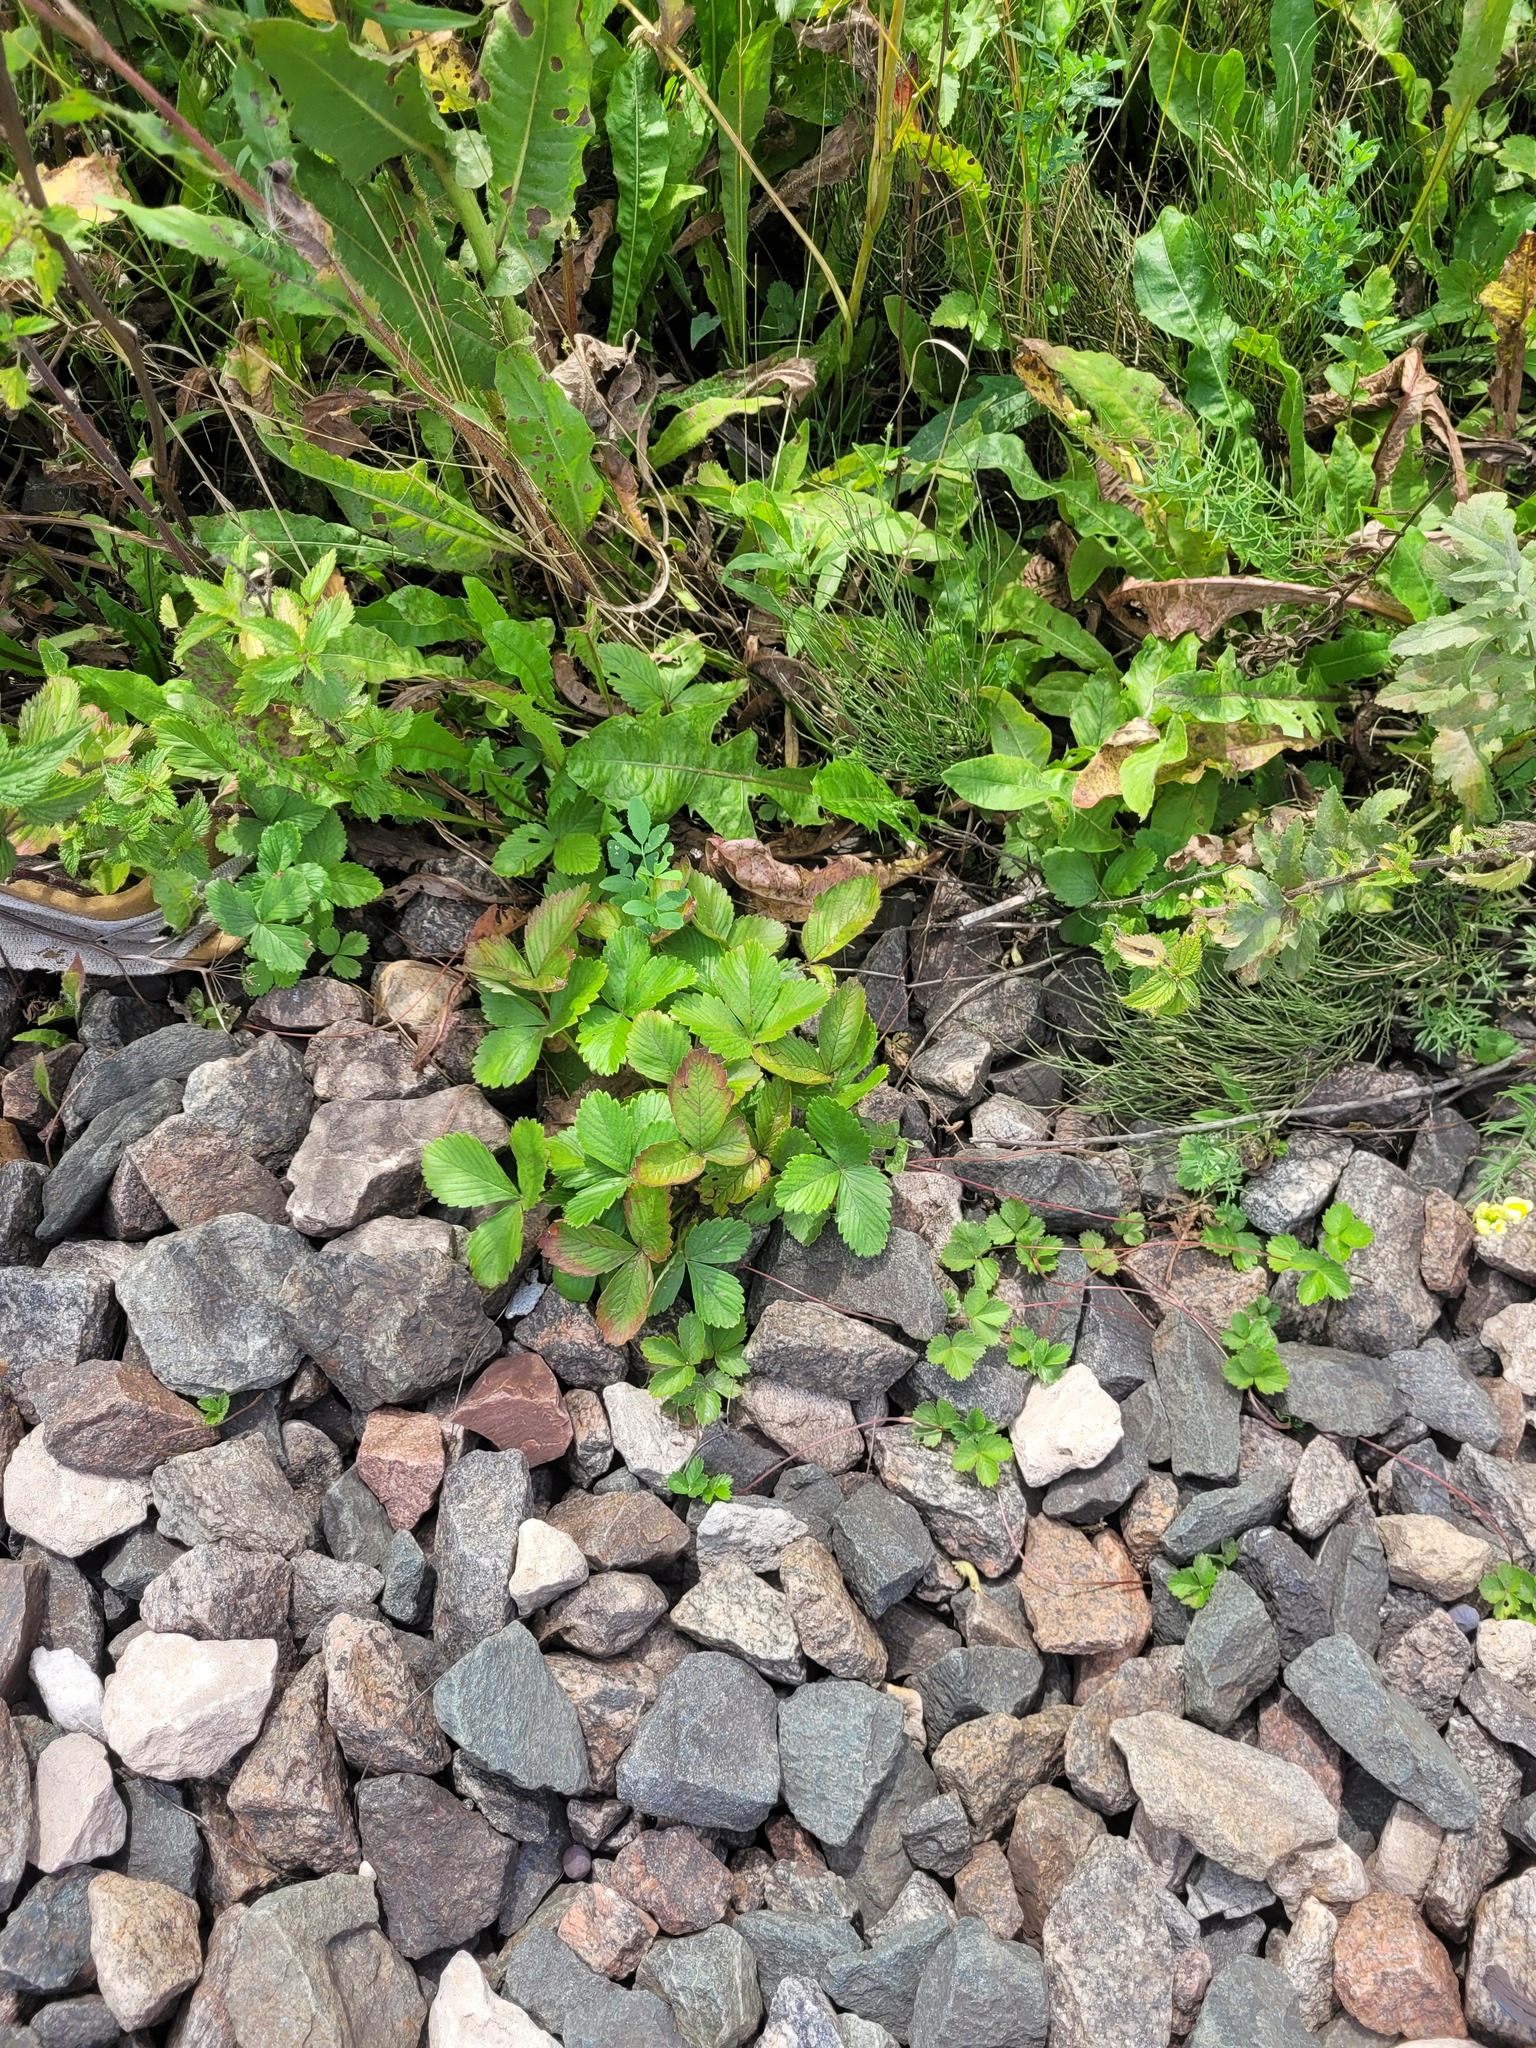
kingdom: Plantae
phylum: Tracheophyta
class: Magnoliopsida
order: Rosales
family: Rosaceae
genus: Fragaria
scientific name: Fragaria vesca
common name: Wild strawberry
